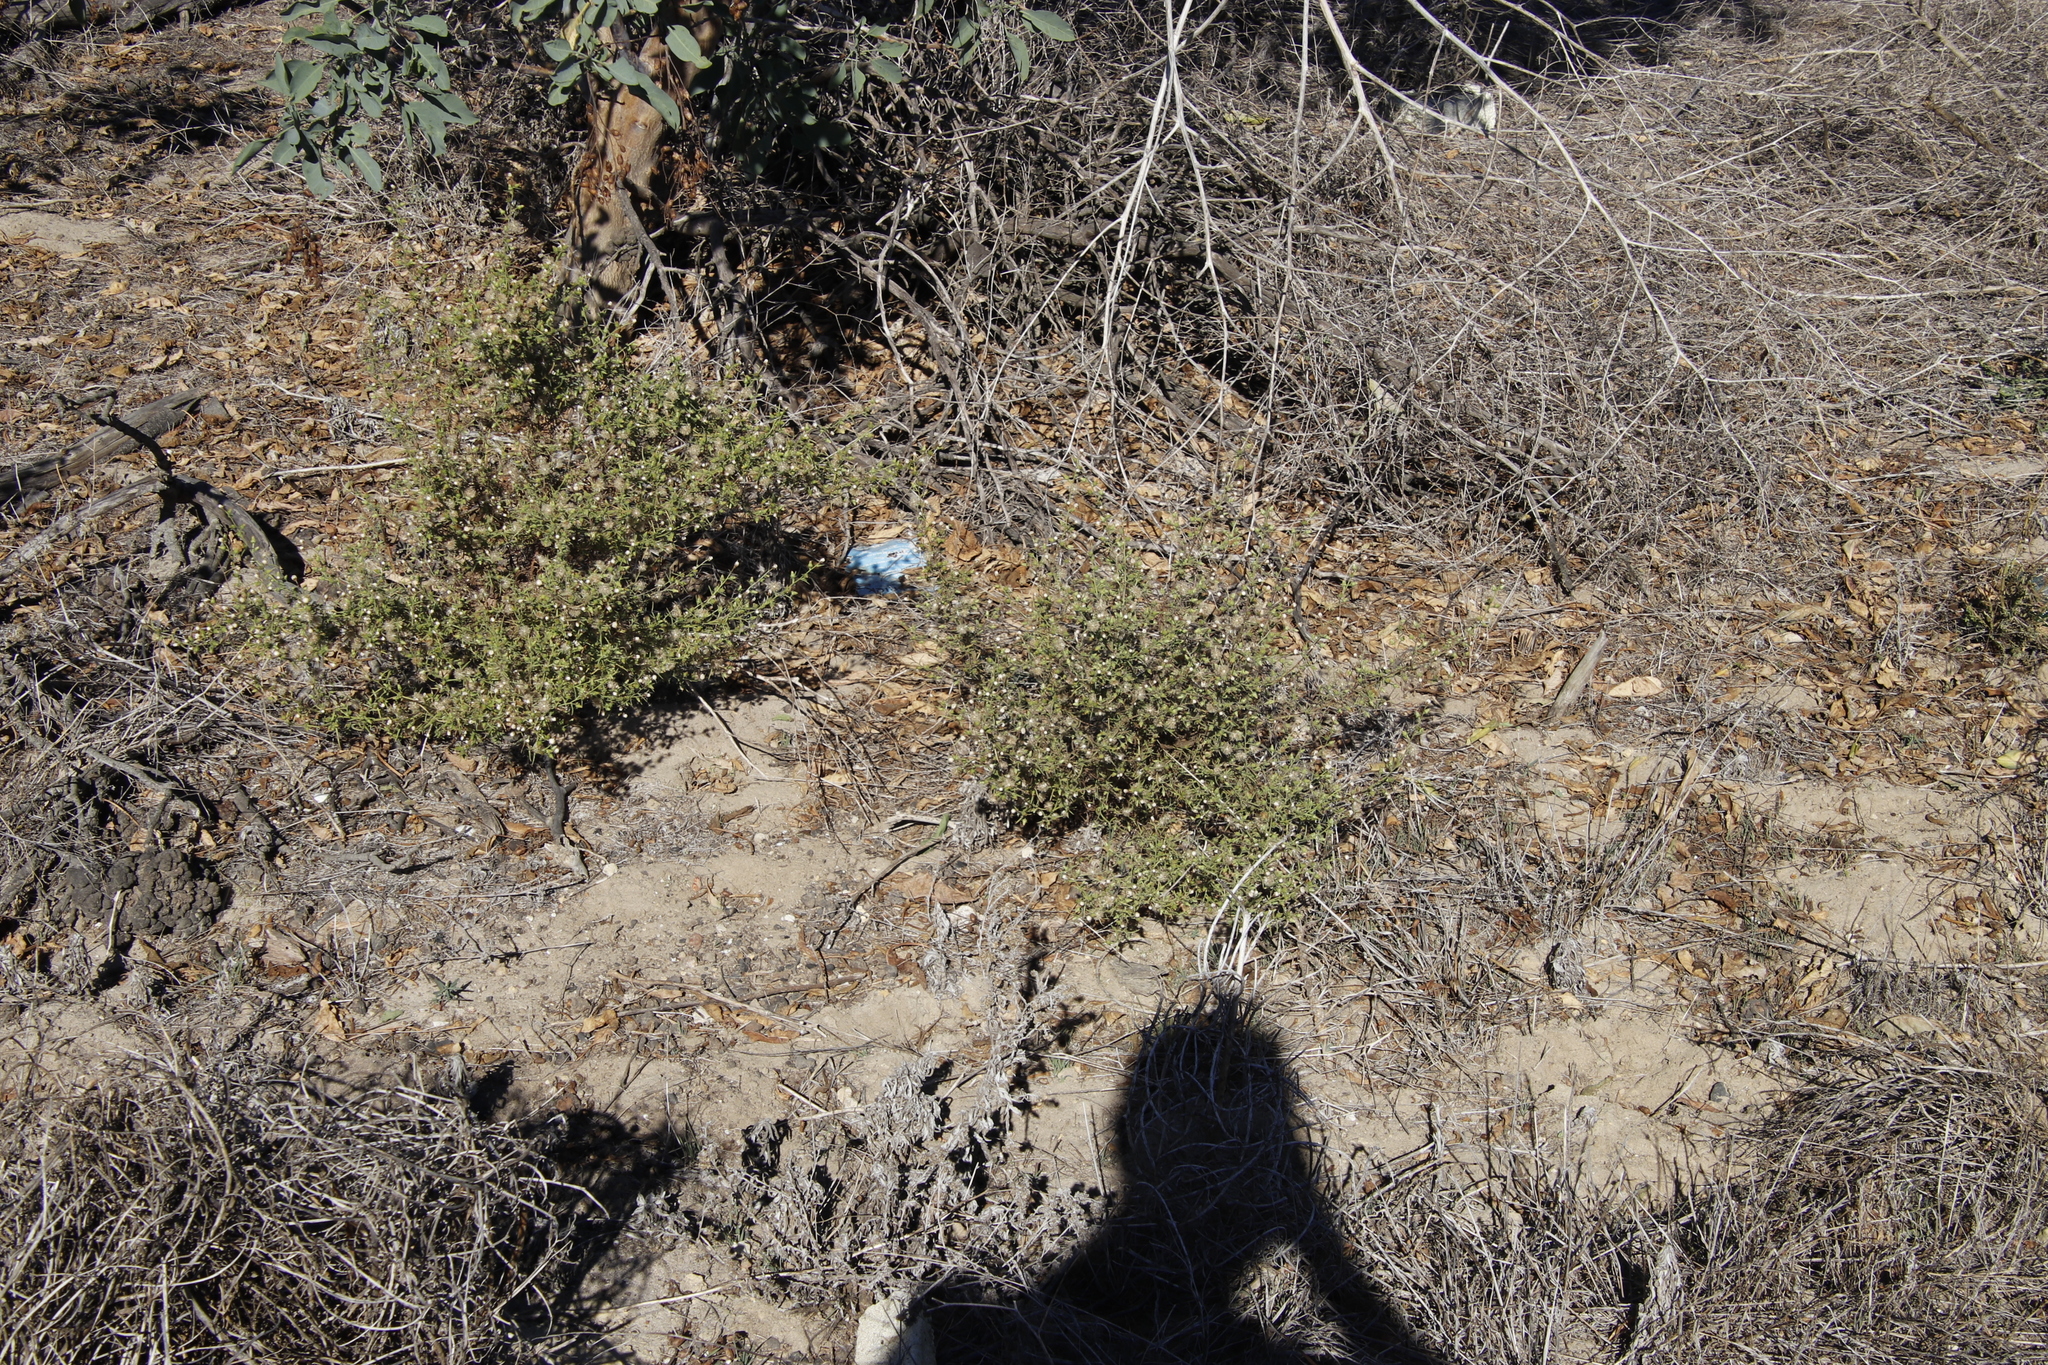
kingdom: Plantae
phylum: Tracheophyta
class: Magnoliopsida
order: Asterales
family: Asteraceae
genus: Dittrichia
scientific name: Dittrichia graveolens
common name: Stinking fleabane
